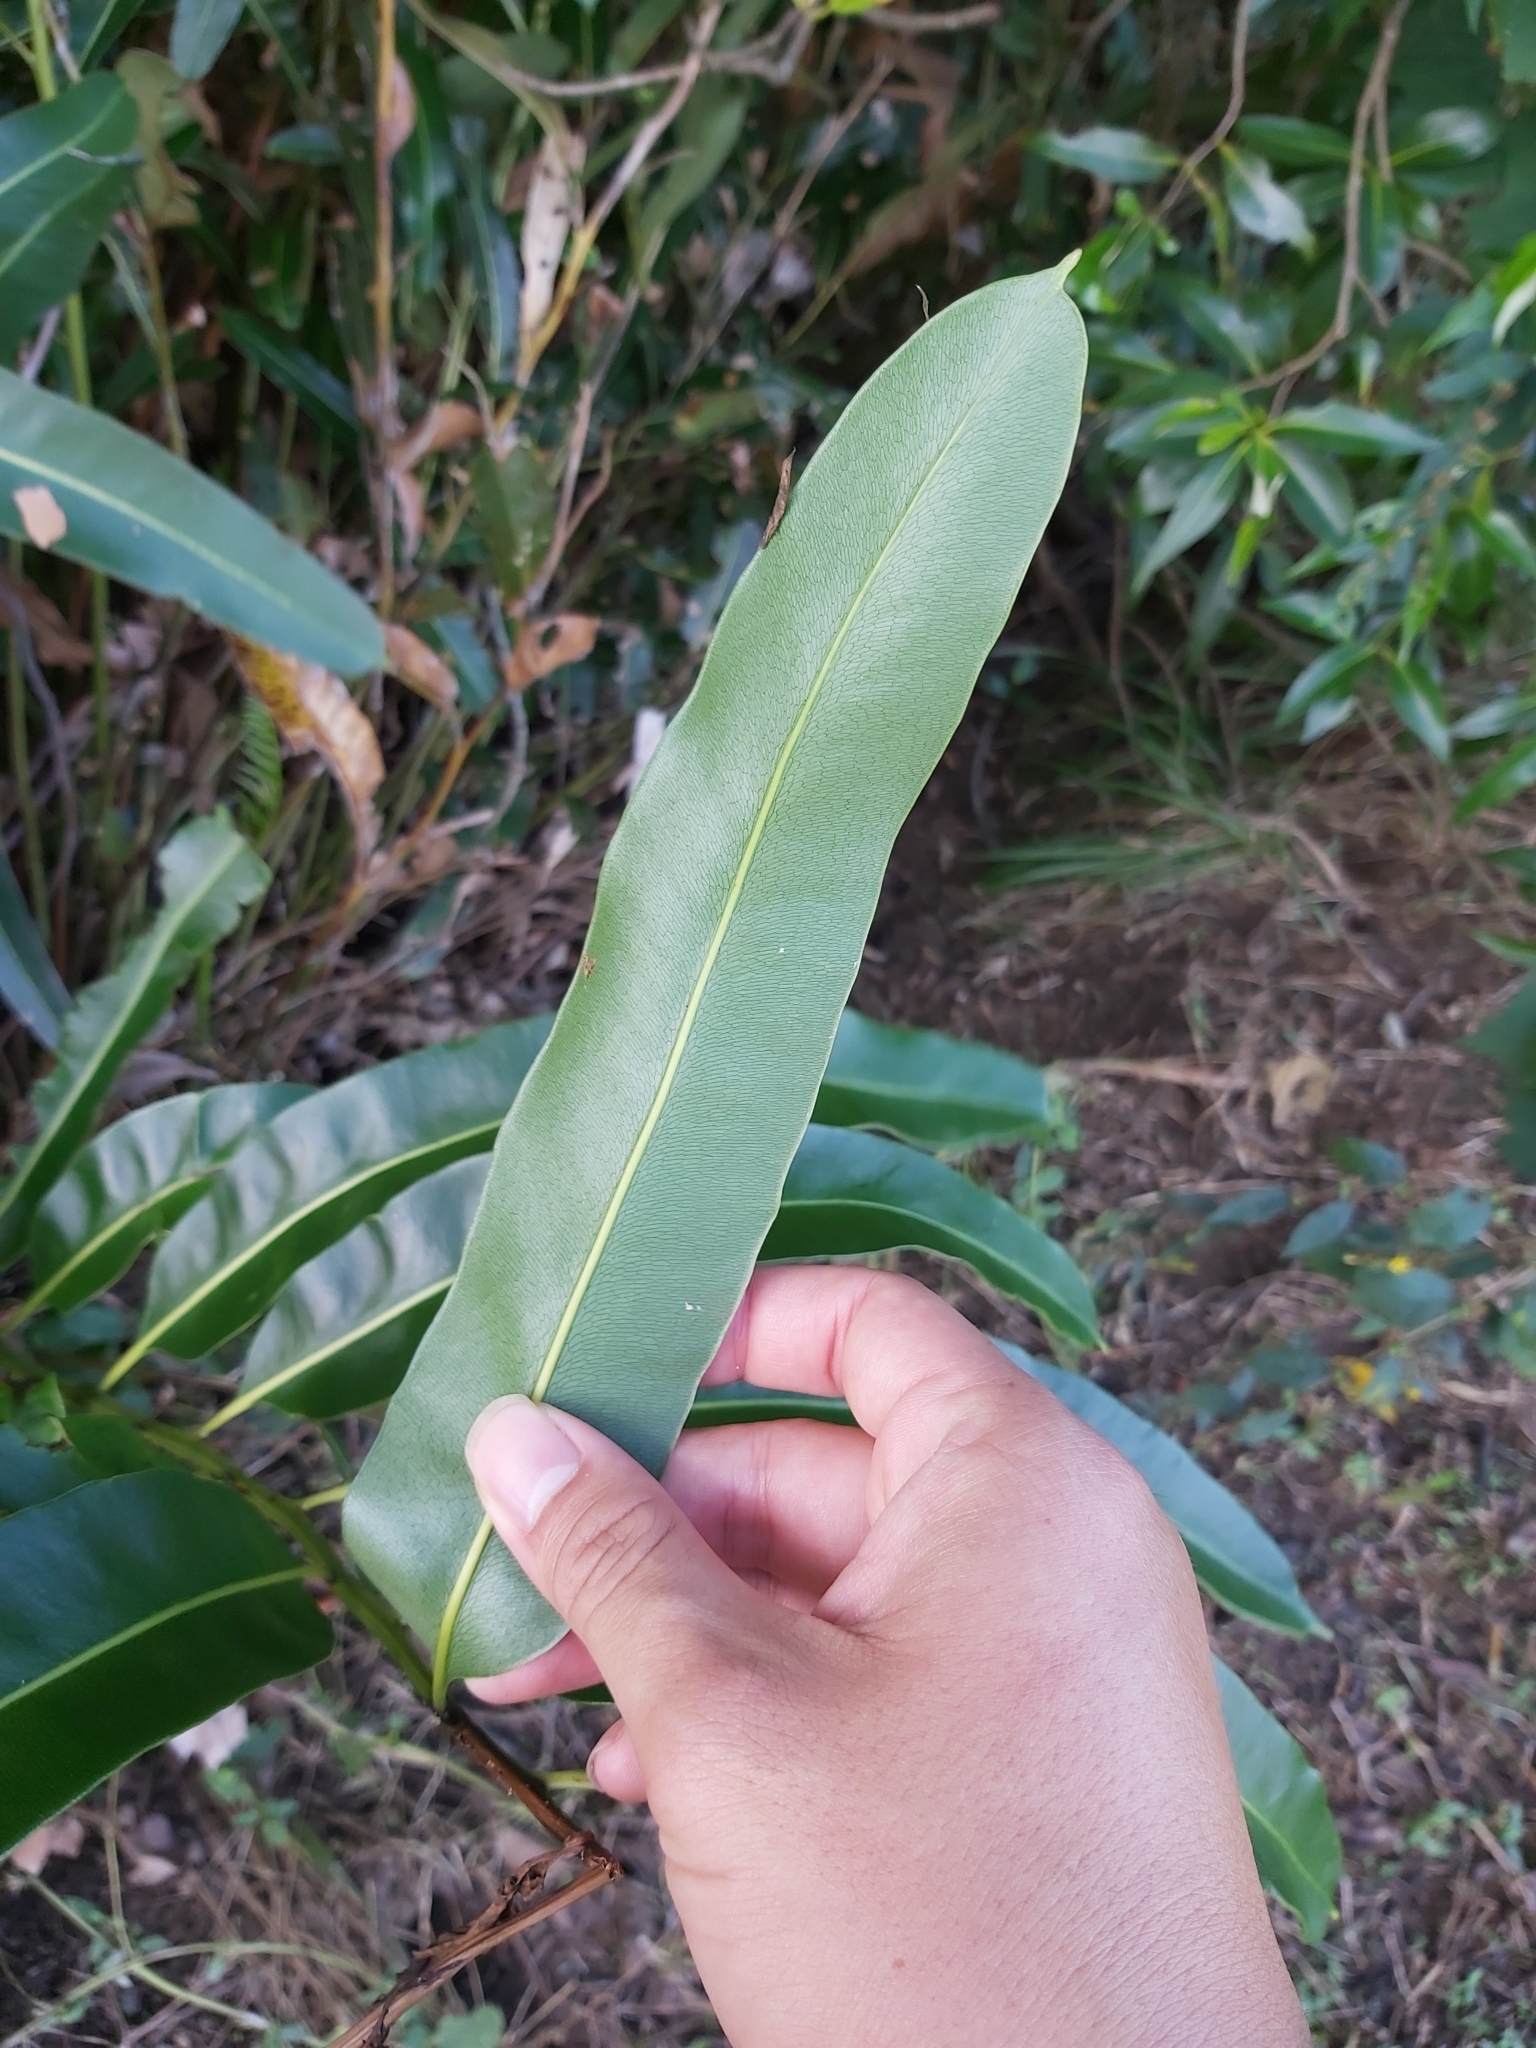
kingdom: Plantae
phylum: Tracheophyta
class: Polypodiopsida
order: Polypodiales
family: Pteridaceae
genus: Acrostichum
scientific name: Acrostichum speciosum
